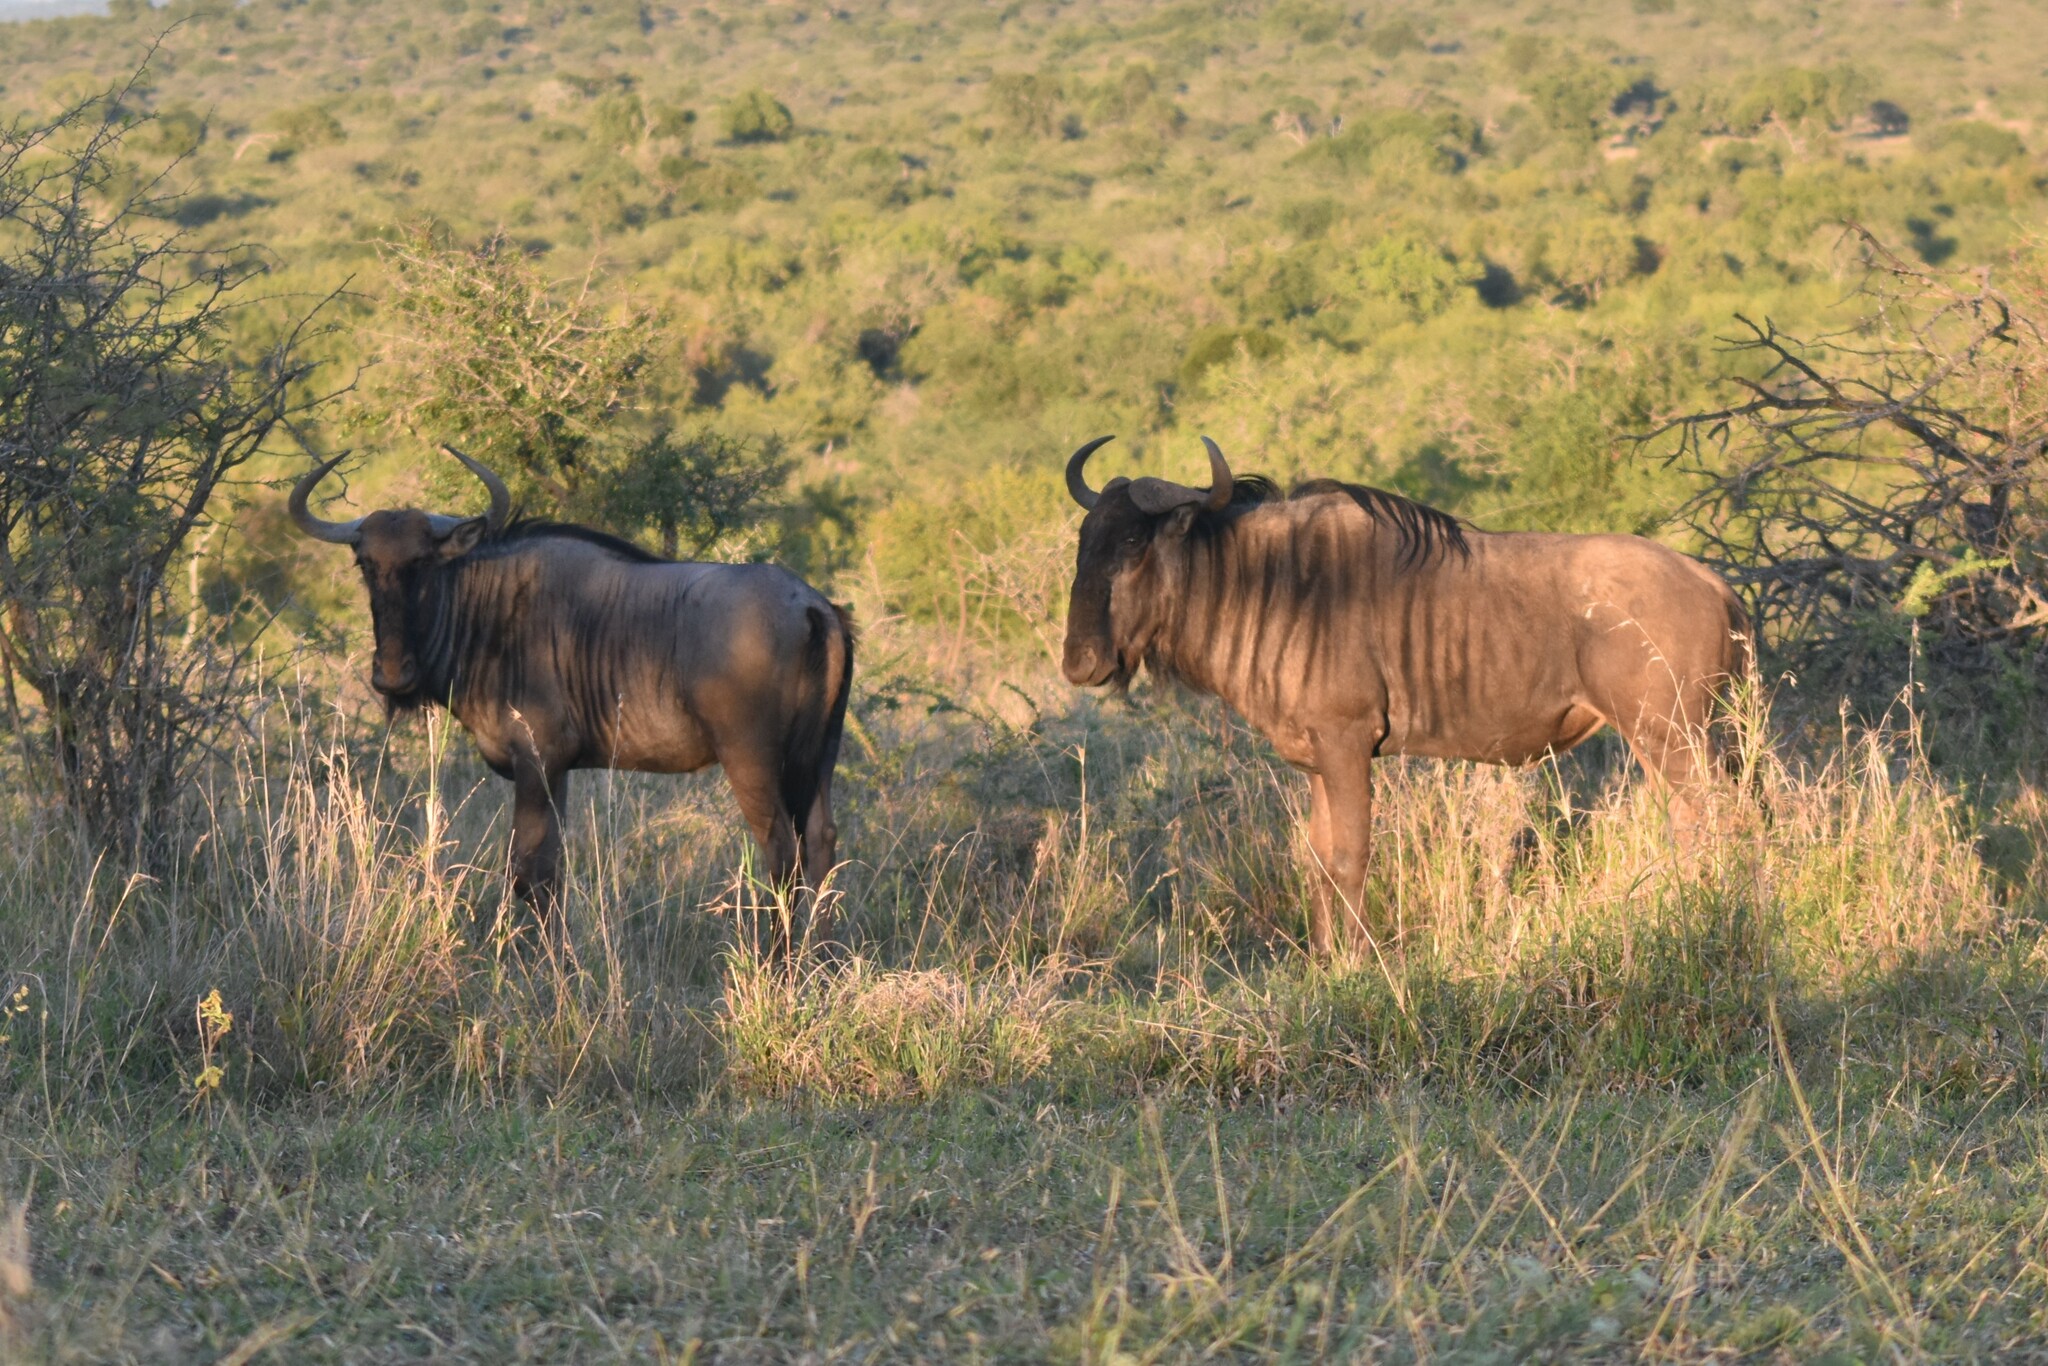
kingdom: Animalia
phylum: Chordata
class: Mammalia
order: Artiodactyla
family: Bovidae
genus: Connochaetes
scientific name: Connochaetes taurinus
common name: Blue wildebeest
